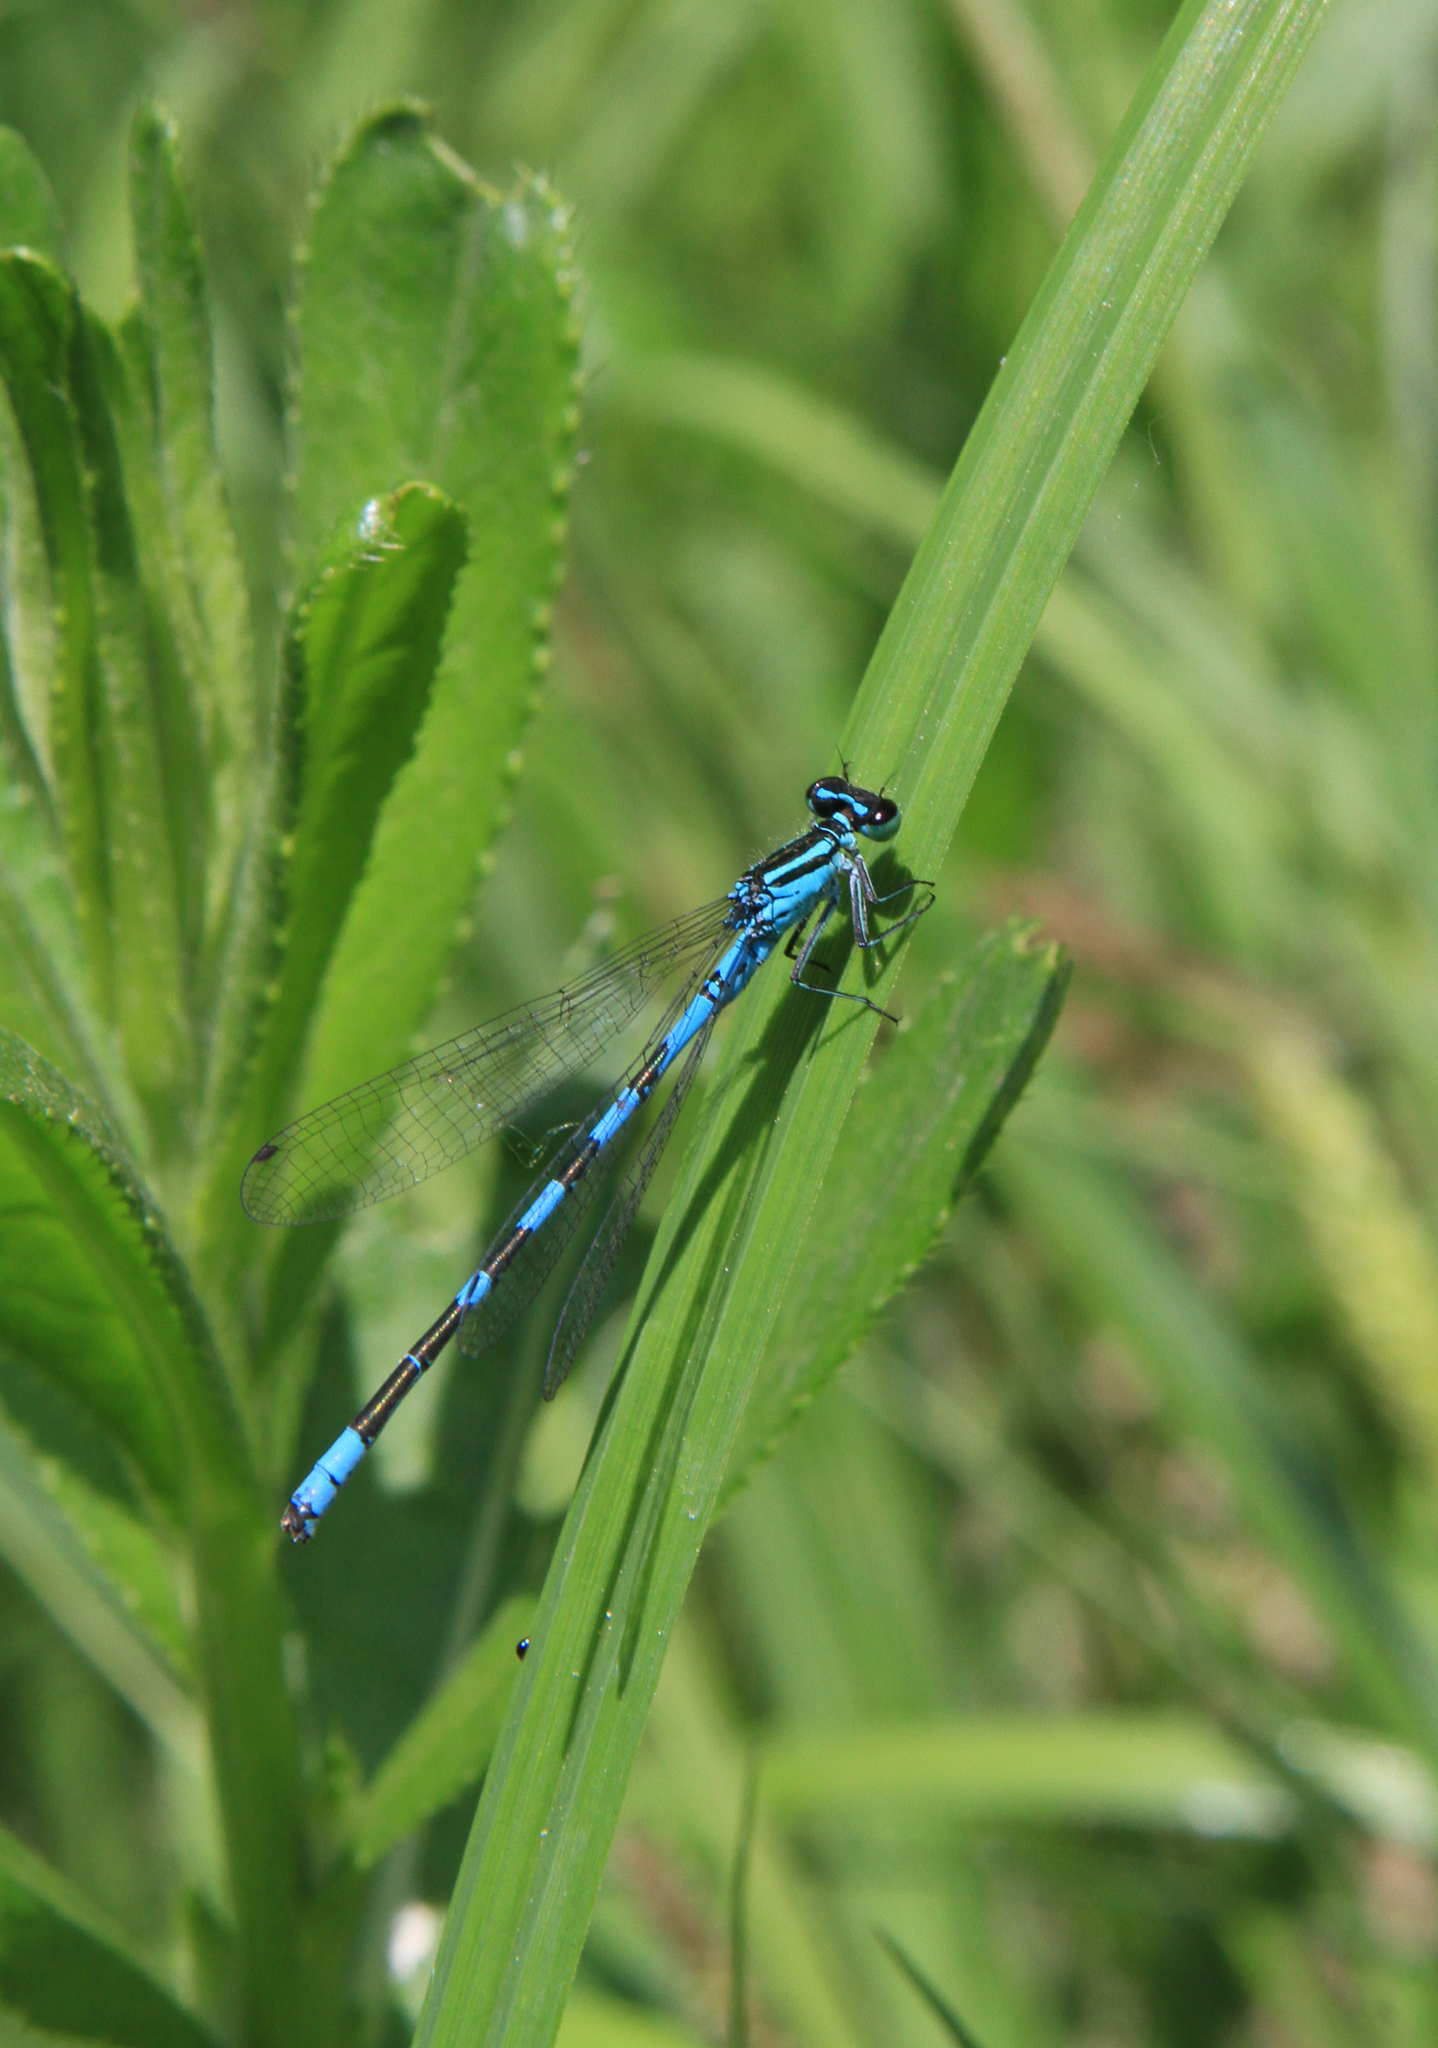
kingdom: Animalia
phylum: Arthropoda
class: Insecta
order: Odonata
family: Coenagrionidae
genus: Coenagrion
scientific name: Coenagrion hastulatum
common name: Spearhead bluet
